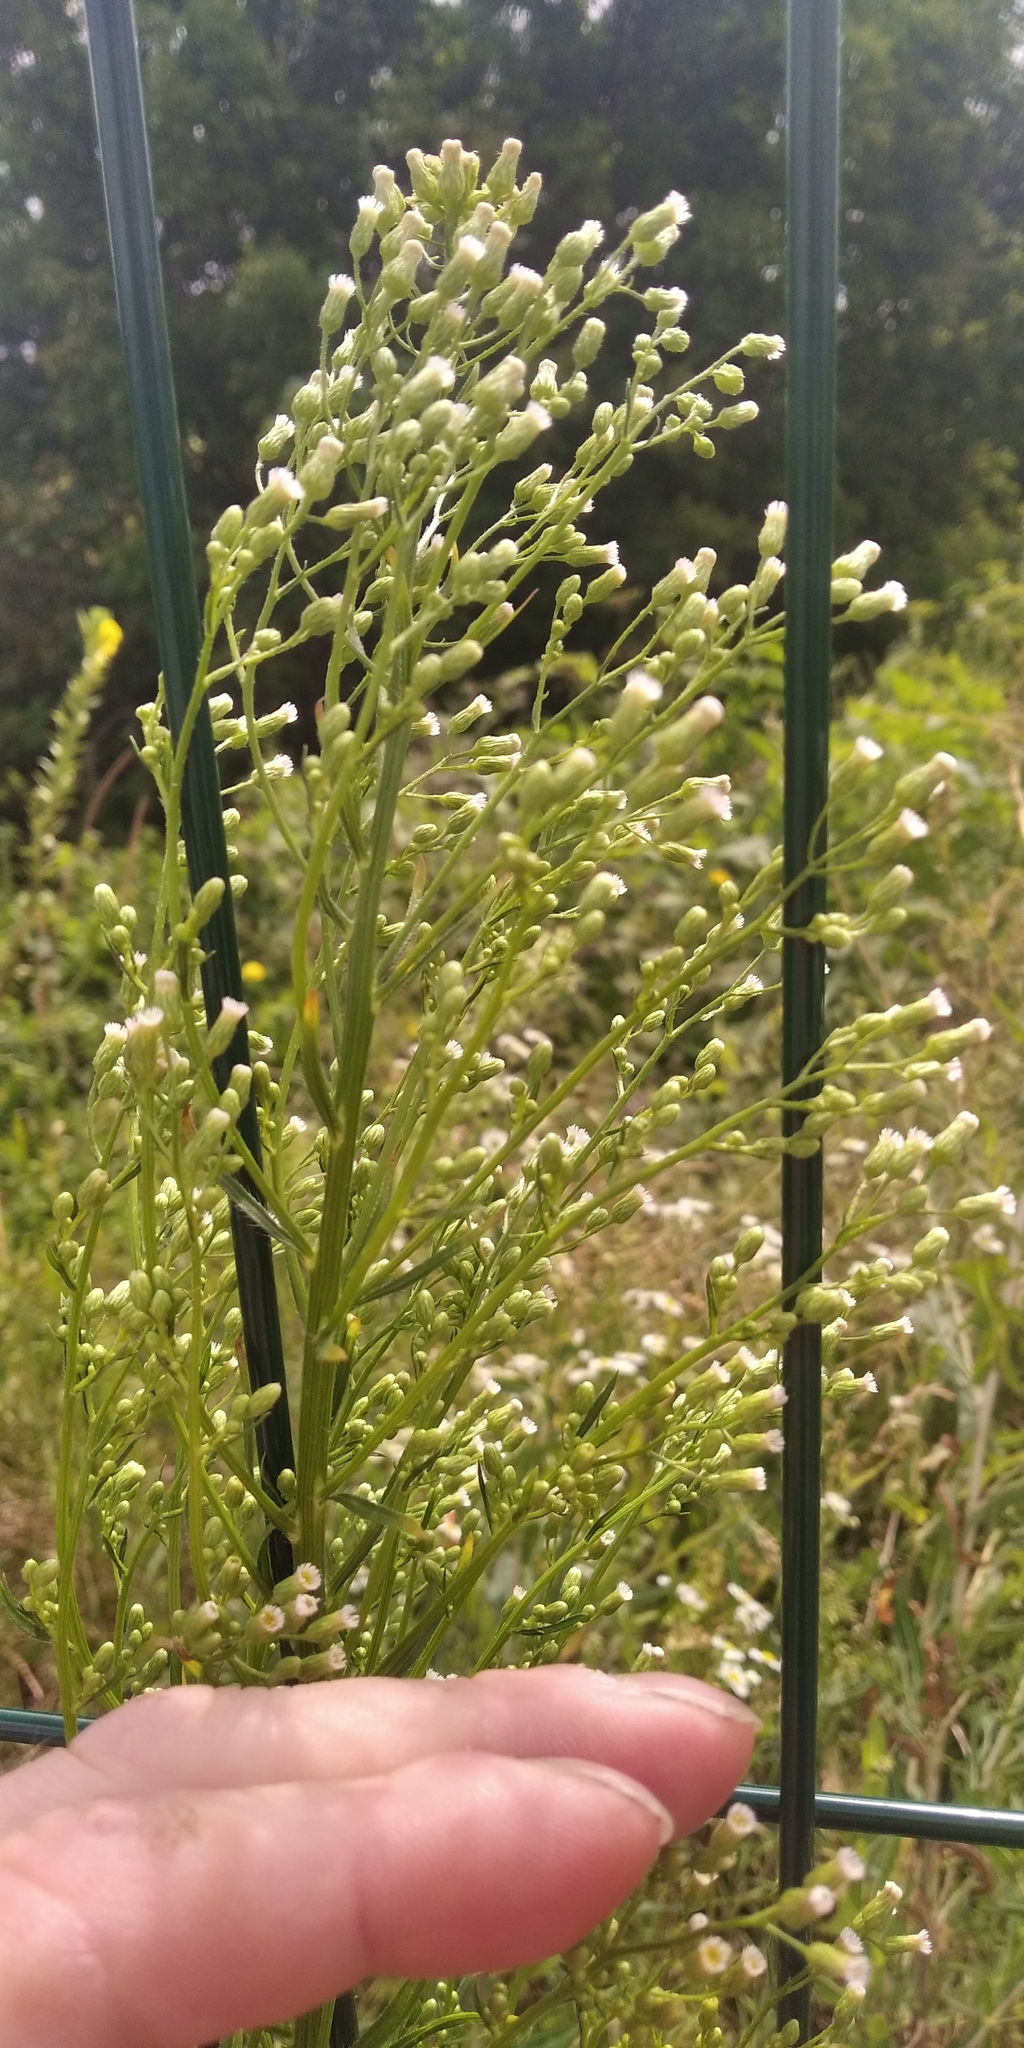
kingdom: Plantae
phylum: Tracheophyta
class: Magnoliopsida
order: Asterales
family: Asteraceae
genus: Erigeron
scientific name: Erigeron canadensis
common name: Canadian fleabane
